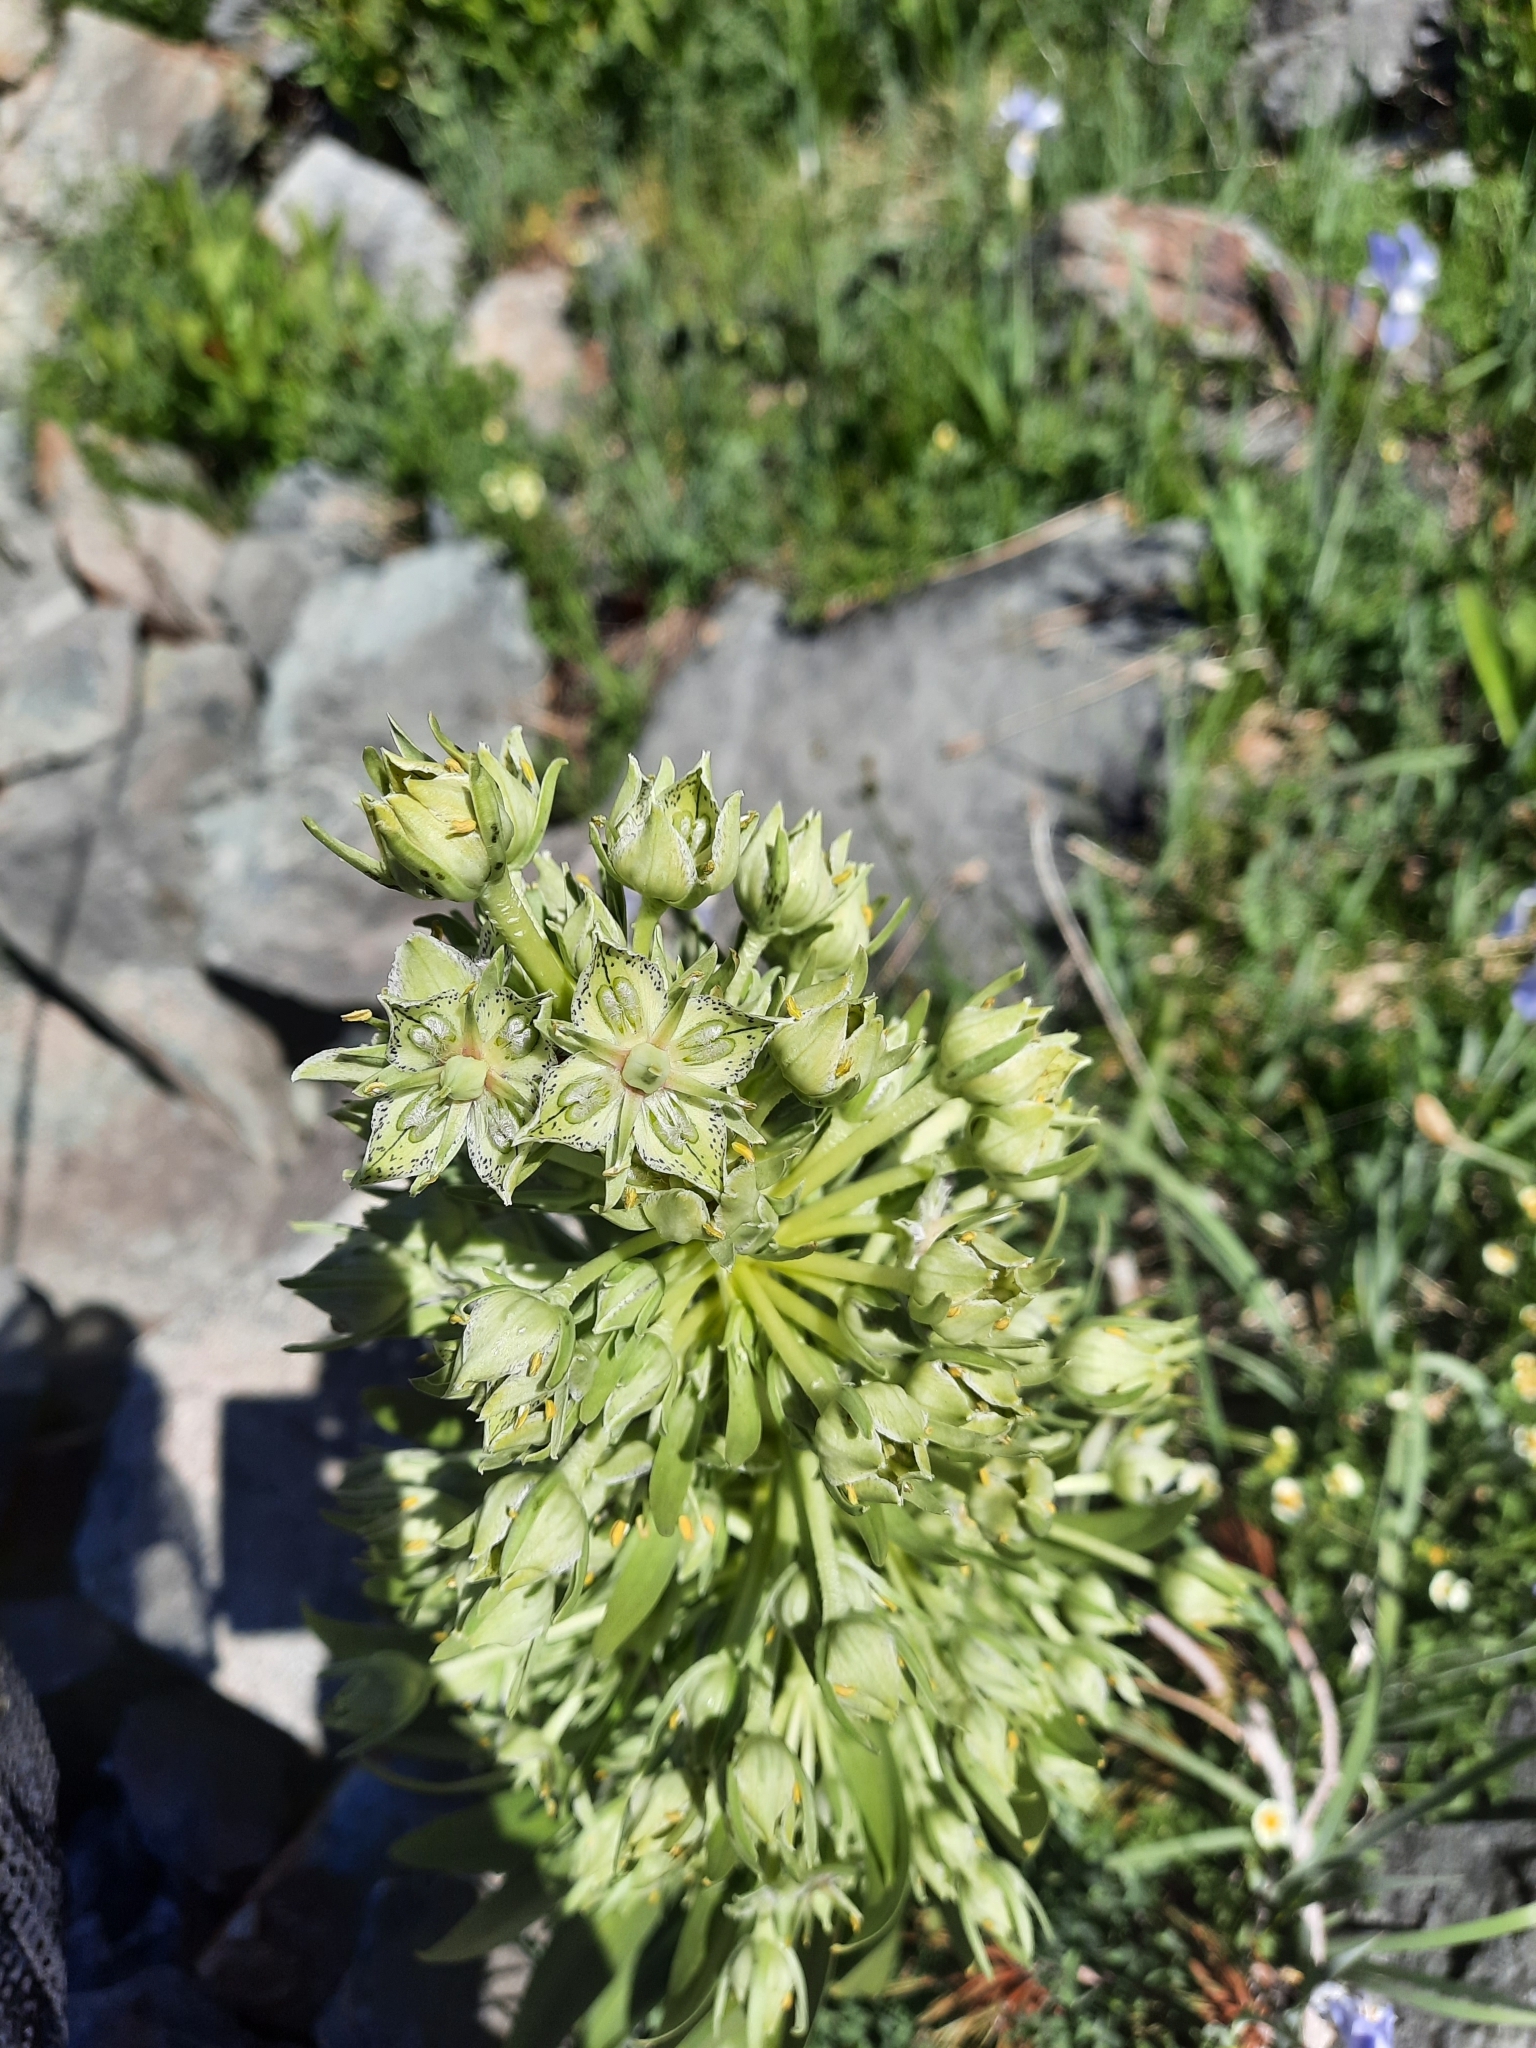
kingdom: Plantae
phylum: Tracheophyta
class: Magnoliopsida
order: Gentianales
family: Gentianaceae
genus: Frasera
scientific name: Frasera speciosa
